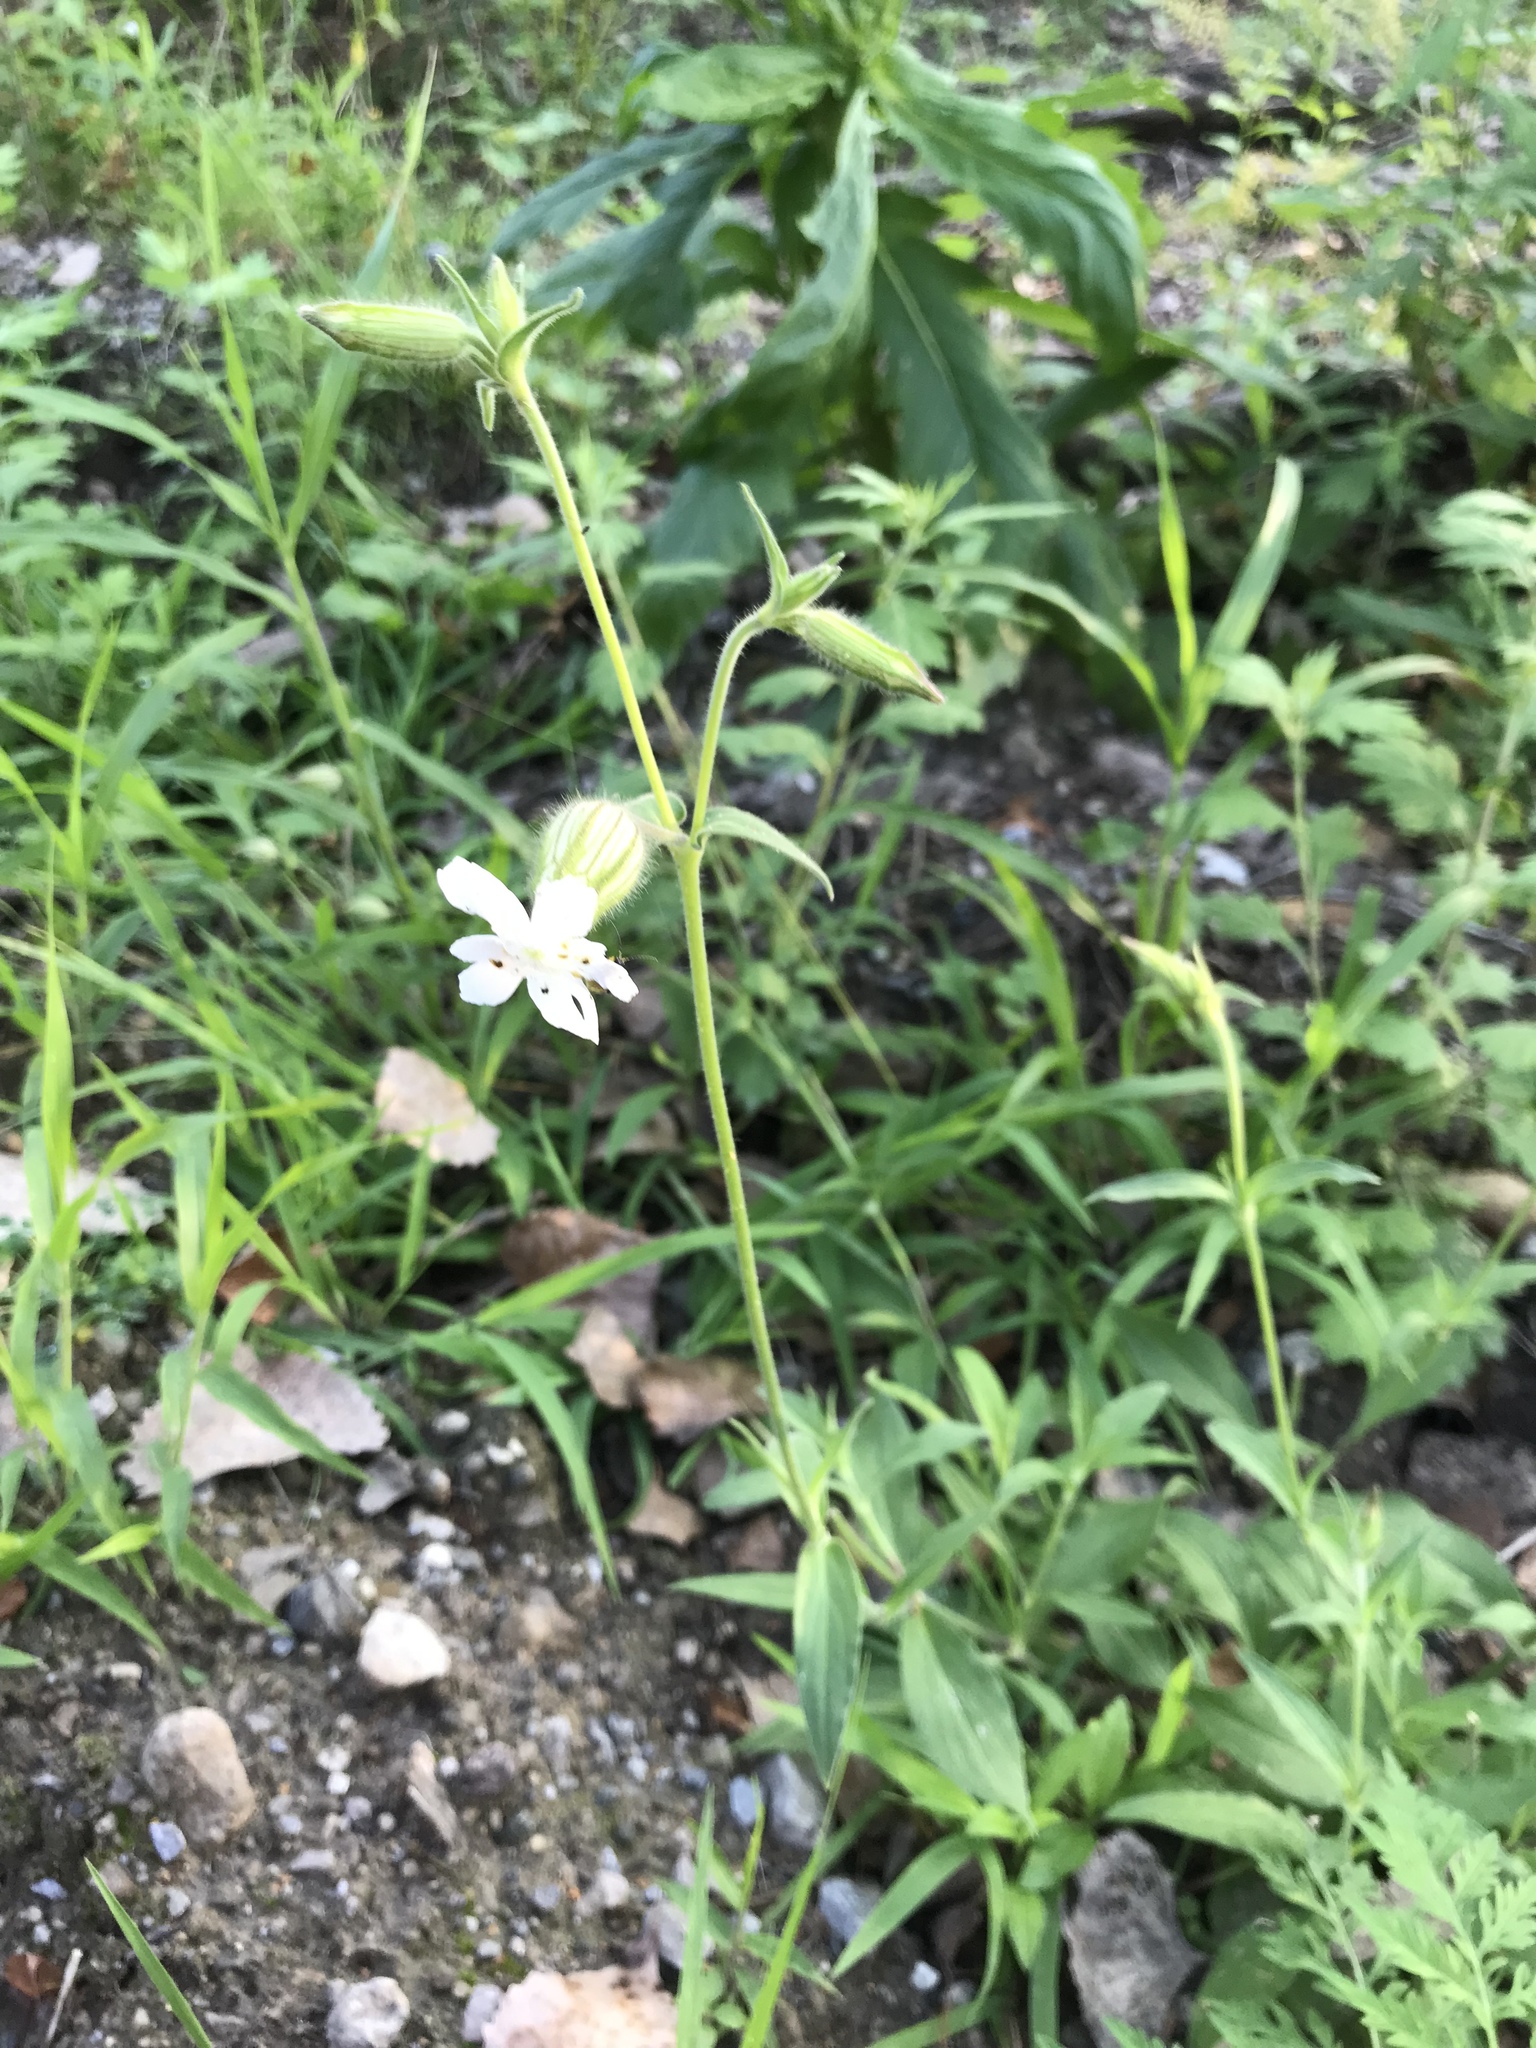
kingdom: Plantae
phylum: Tracheophyta
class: Magnoliopsida
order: Caryophyllales
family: Caryophyllaceae
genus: Silene
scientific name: Silene latifolia
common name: White campion
